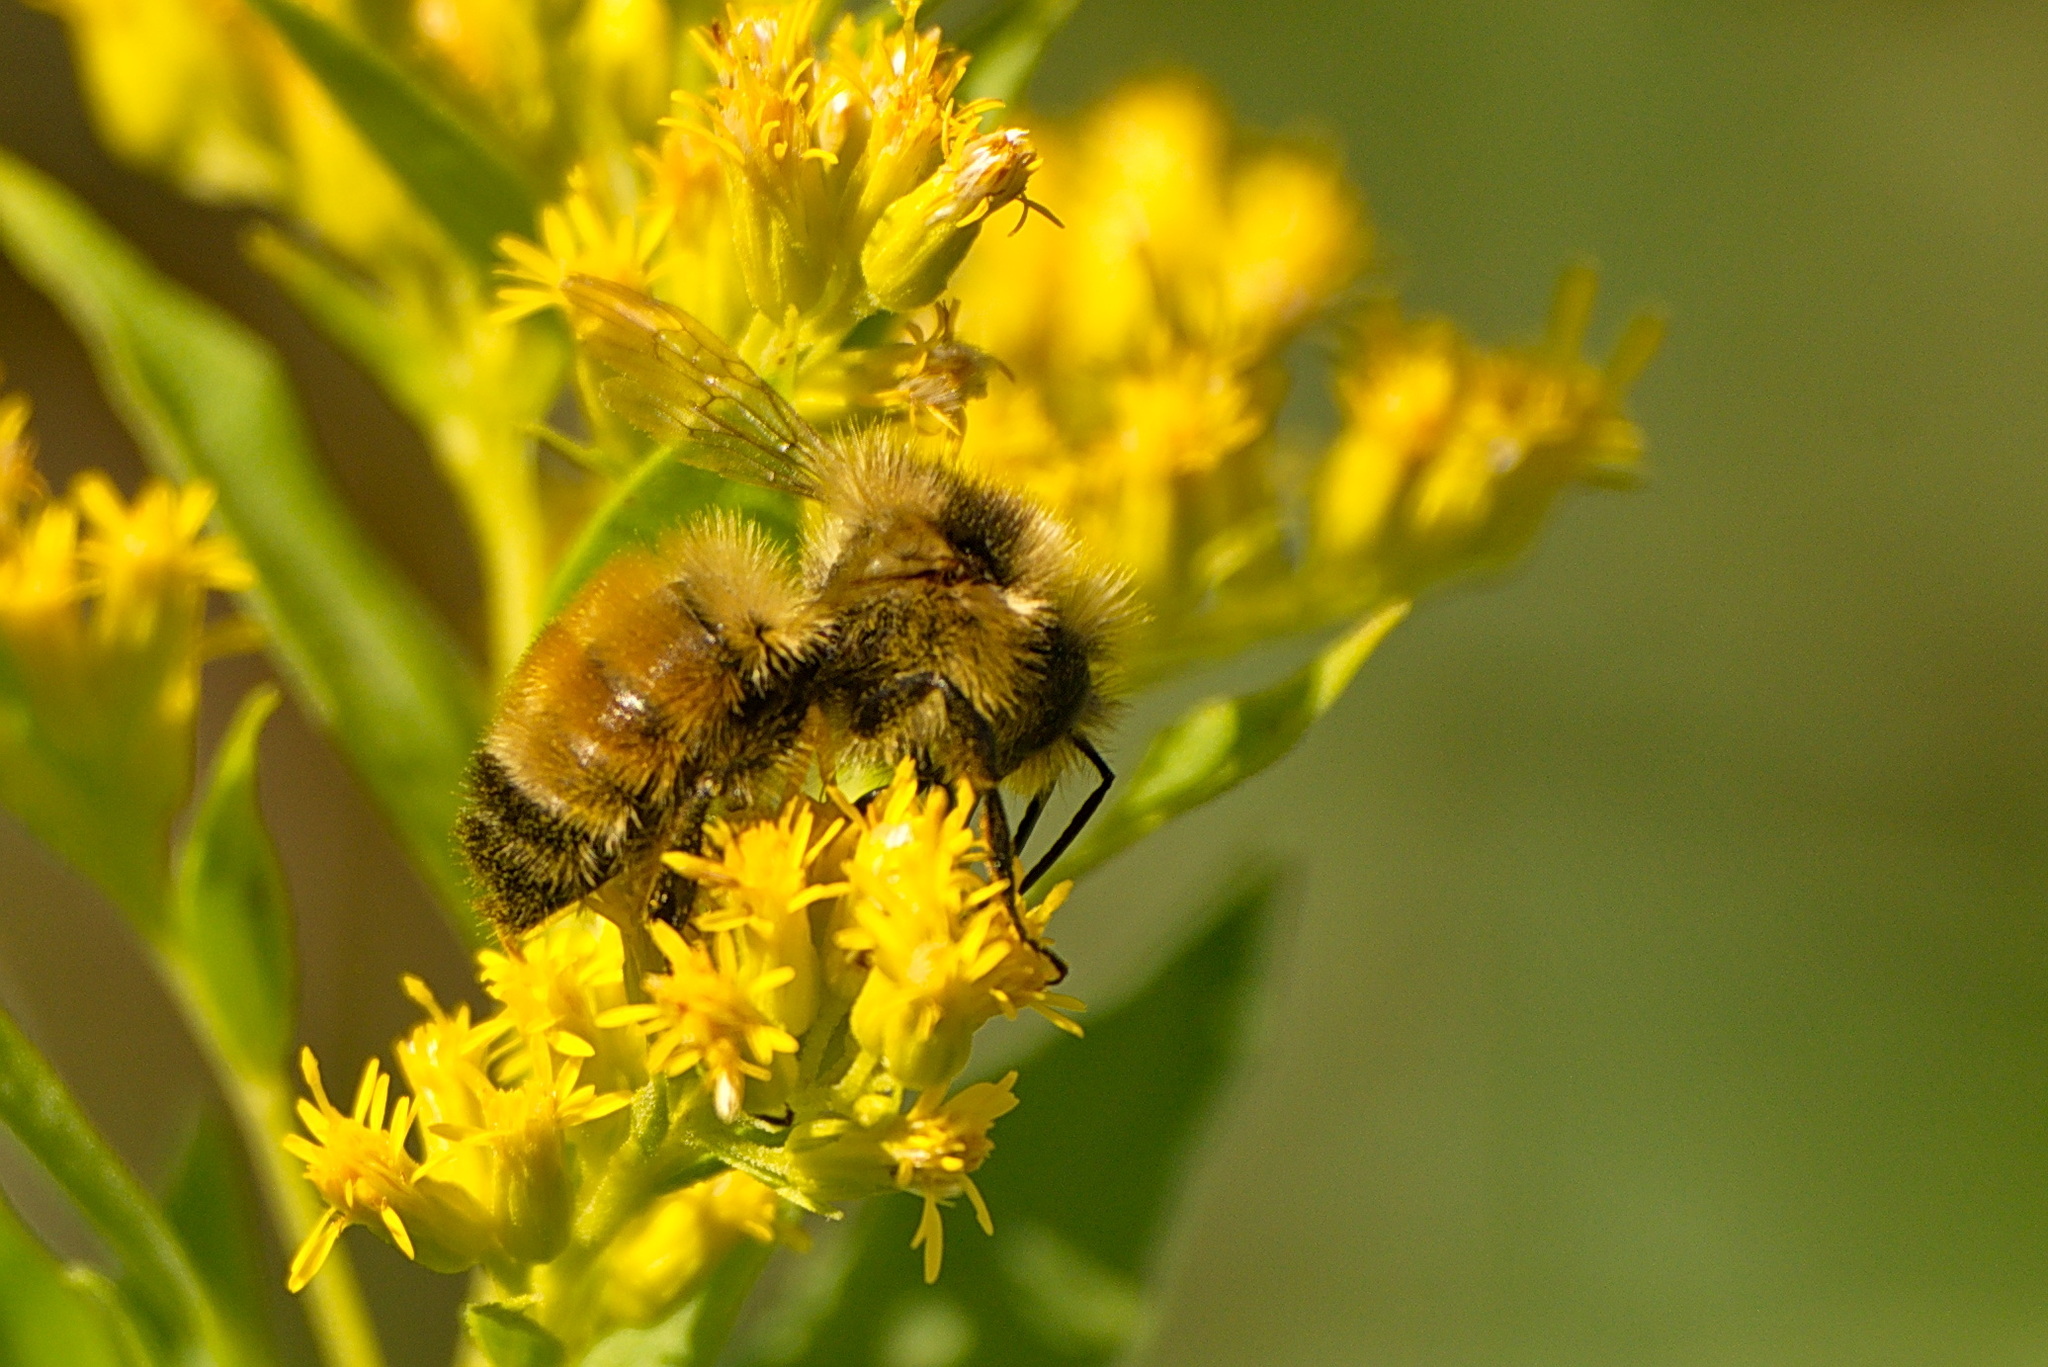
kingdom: Animalia
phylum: Arthropoda
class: Insecta
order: Hymenoptera
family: Apidae
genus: Bombus
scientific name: Bombus ternarius
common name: Tri-colored bumble bee
